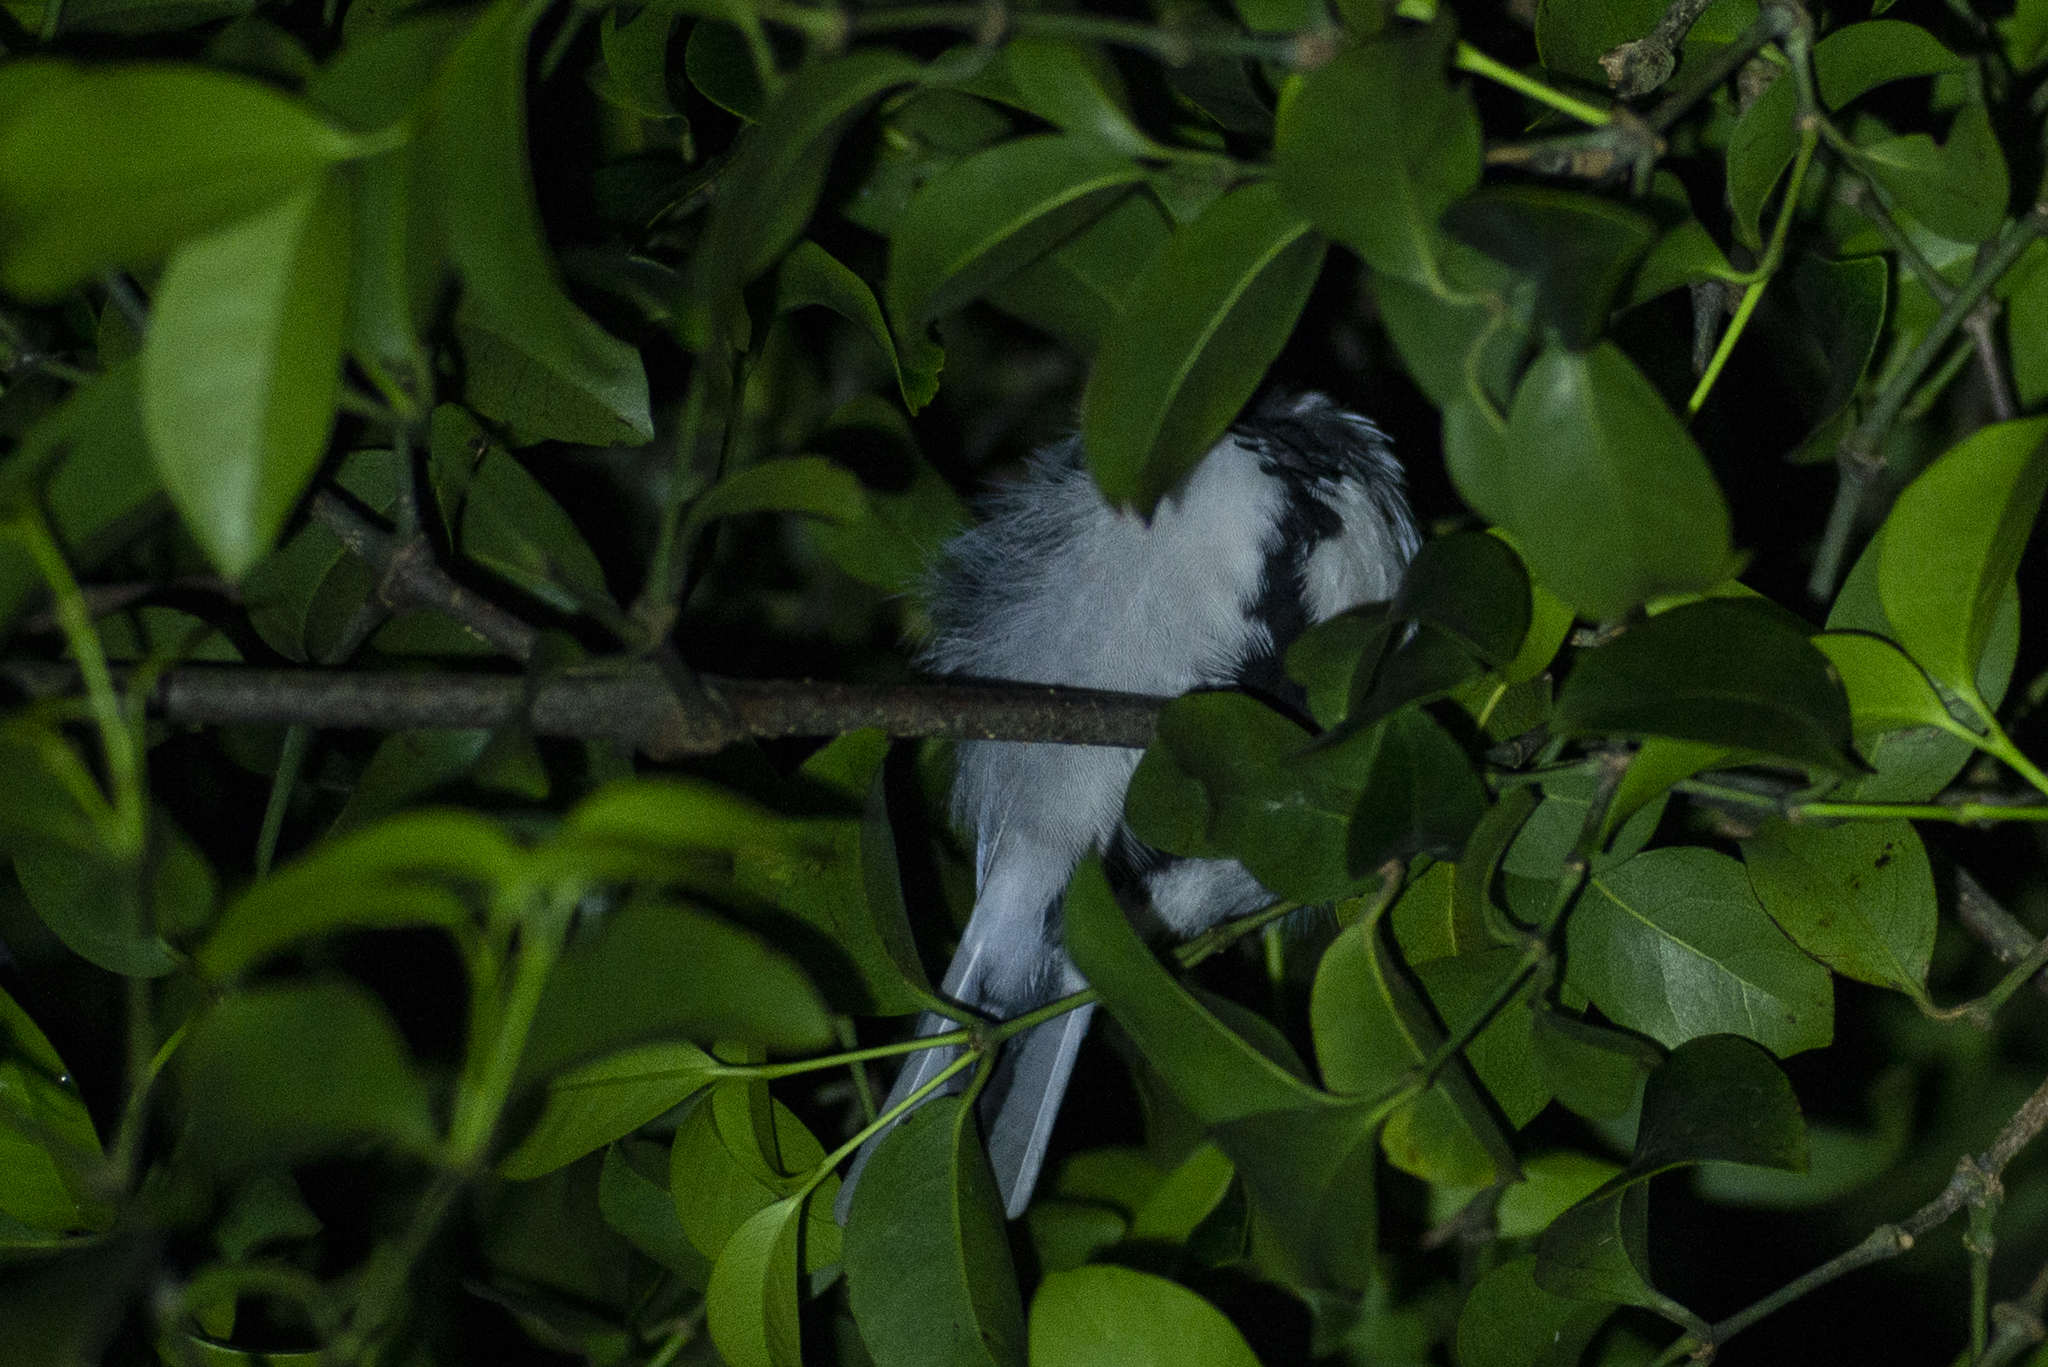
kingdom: Animalia
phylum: Chordata
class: Aves
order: Passeriformes
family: Paridae
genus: Parus
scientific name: Parus minor
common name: Japanese tit
